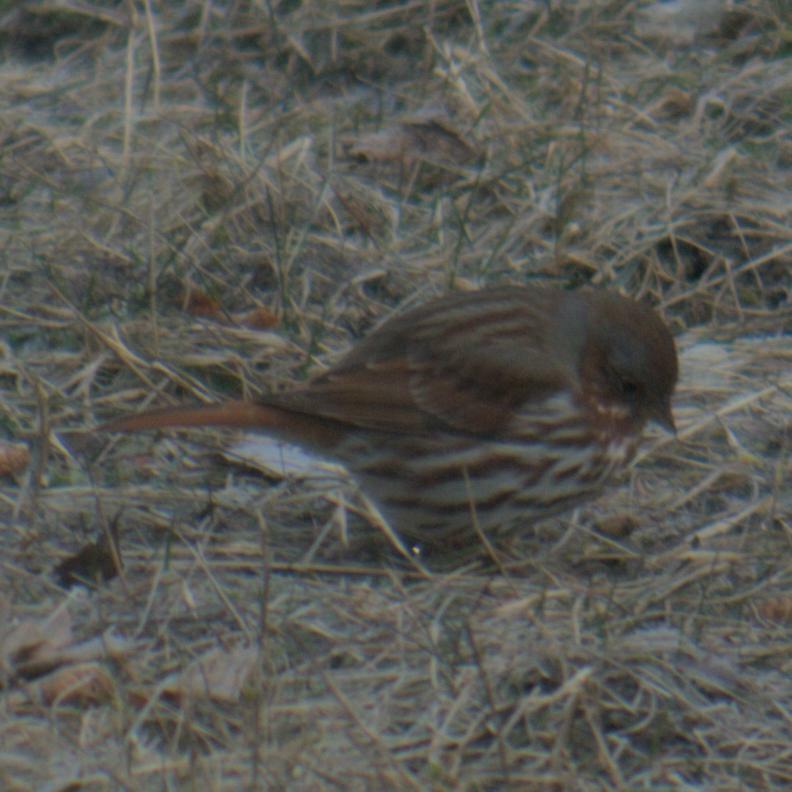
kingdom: Animalia
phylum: Chordata
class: Aves
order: Passeriformes
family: Passerellidae
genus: Passerella
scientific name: Passerella iliaca
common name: Fox sparrow
